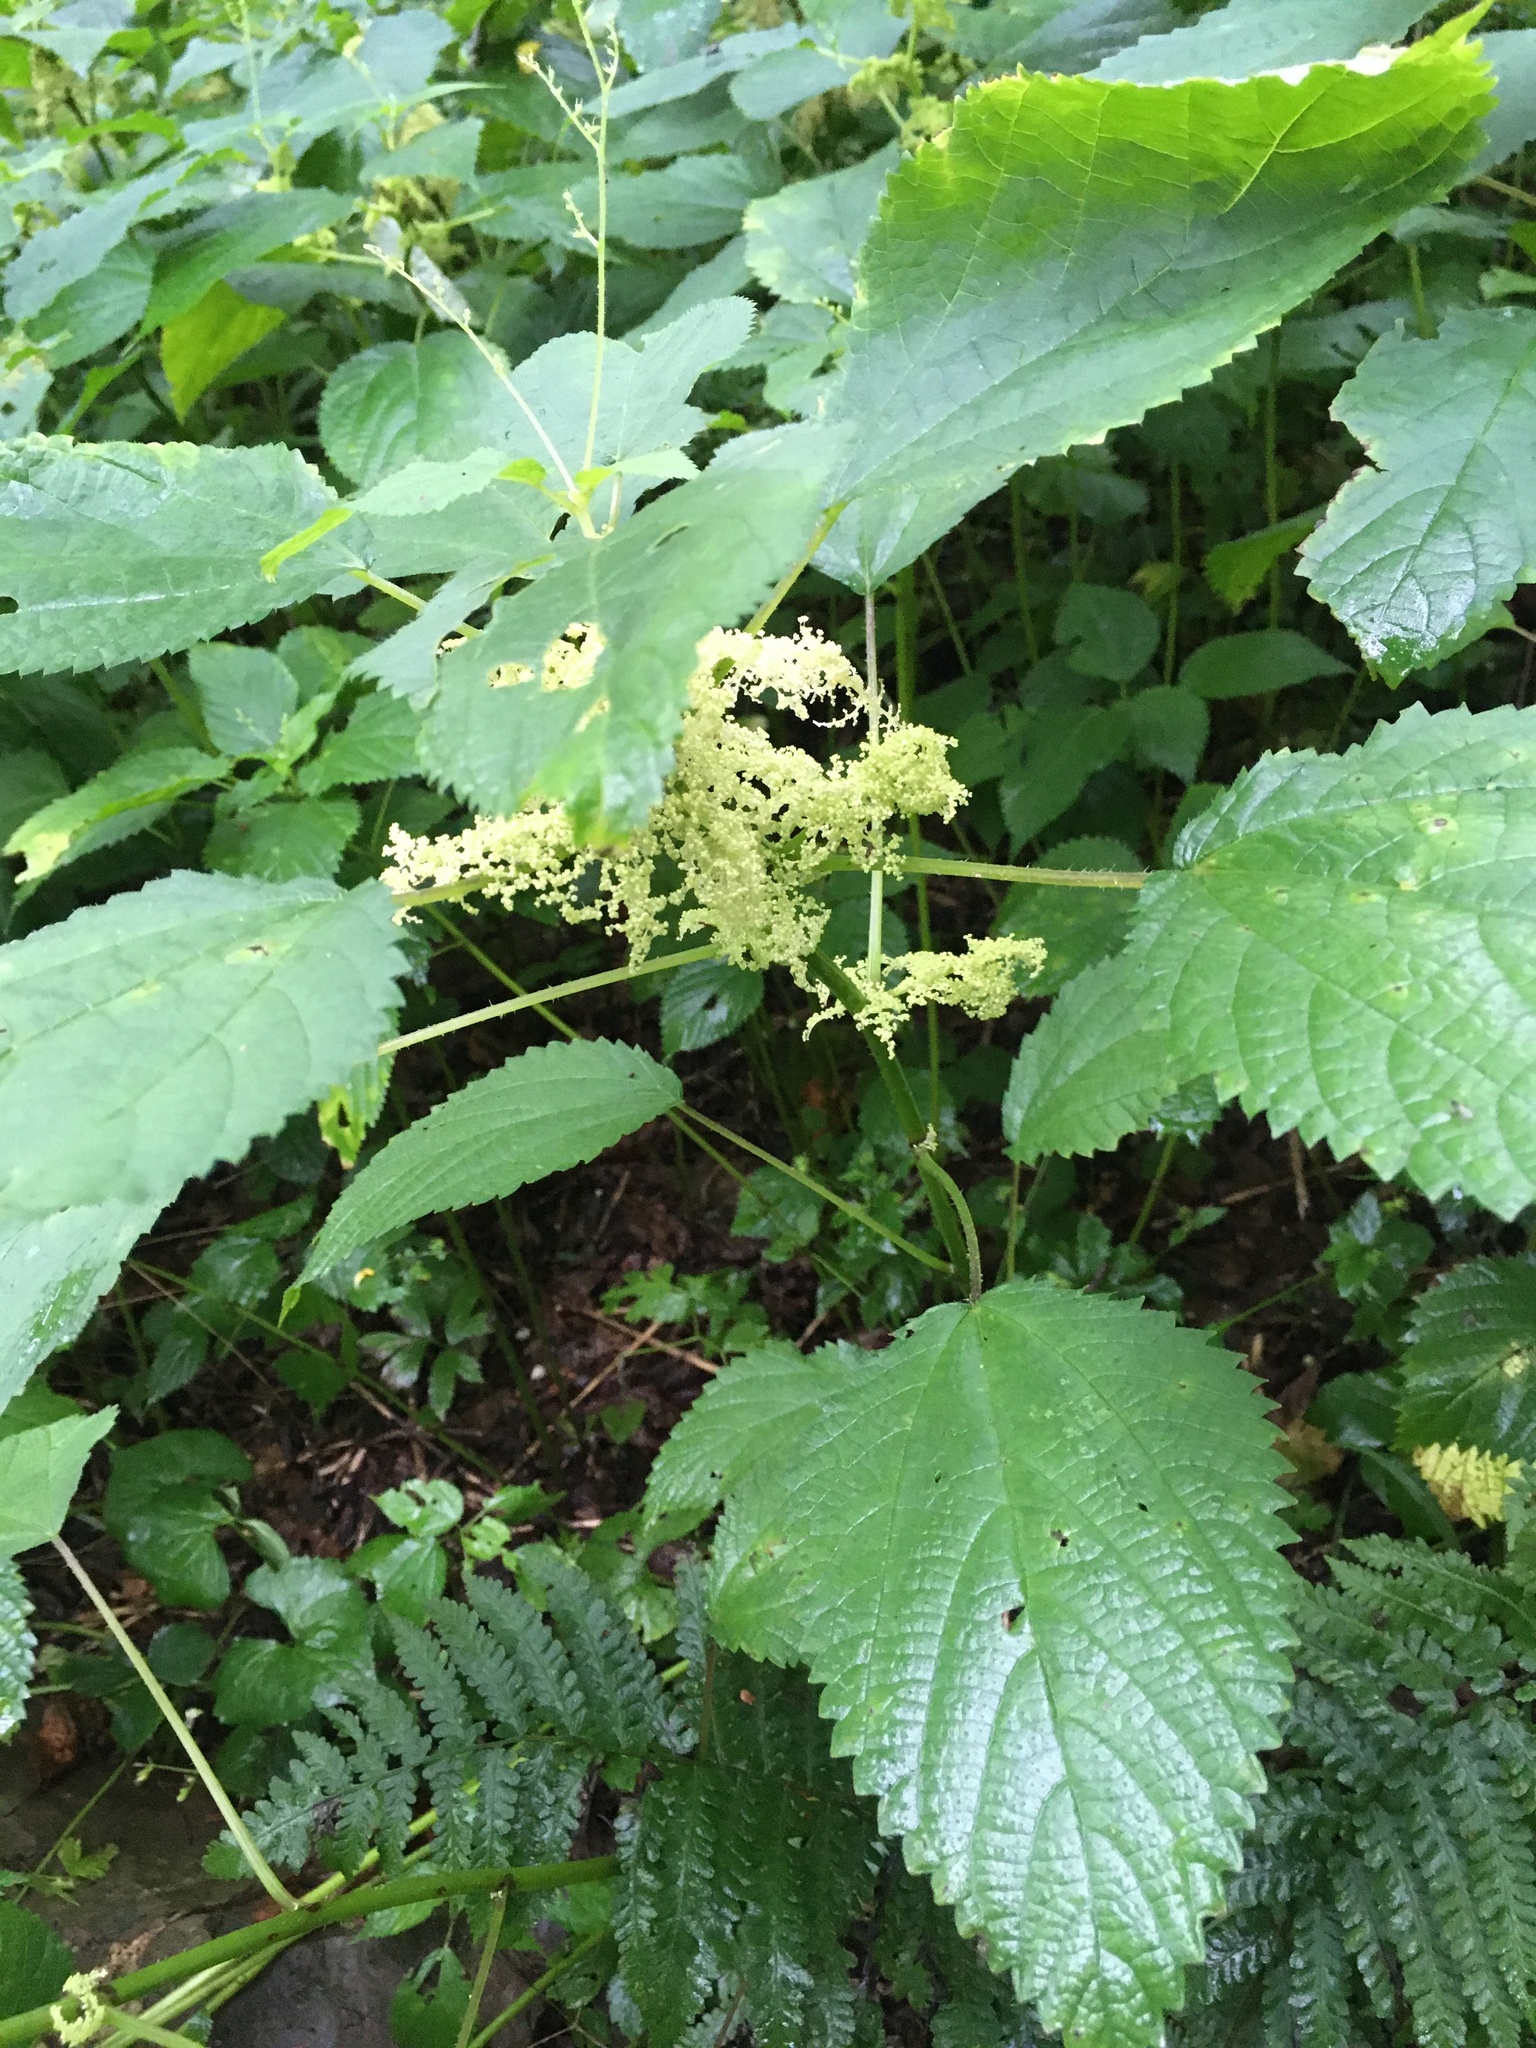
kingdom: Plantae
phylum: Tracheophyta
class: Magnoliopsida
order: Rosales
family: Urticaceae
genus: Laportea
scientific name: Laportea canadensis
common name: Canada nettle
